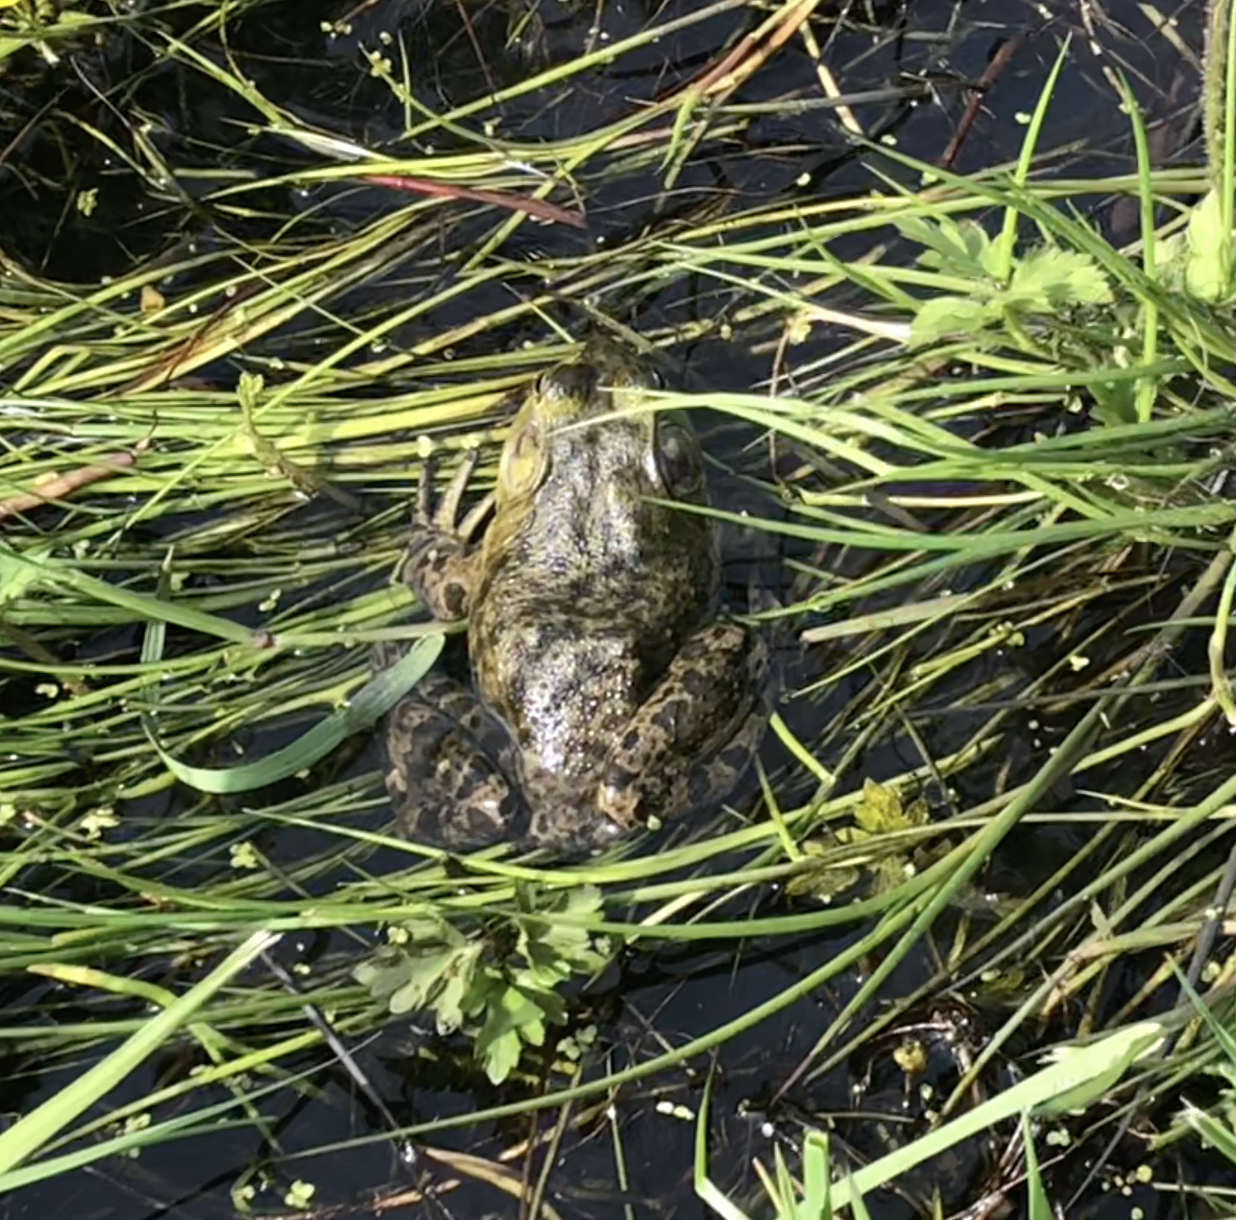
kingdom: Animalia
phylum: Chordata
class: Amphibia
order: Anura
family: Ranidae
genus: Lithobates
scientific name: Lithobates catesbeianus
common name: American bullfrog
